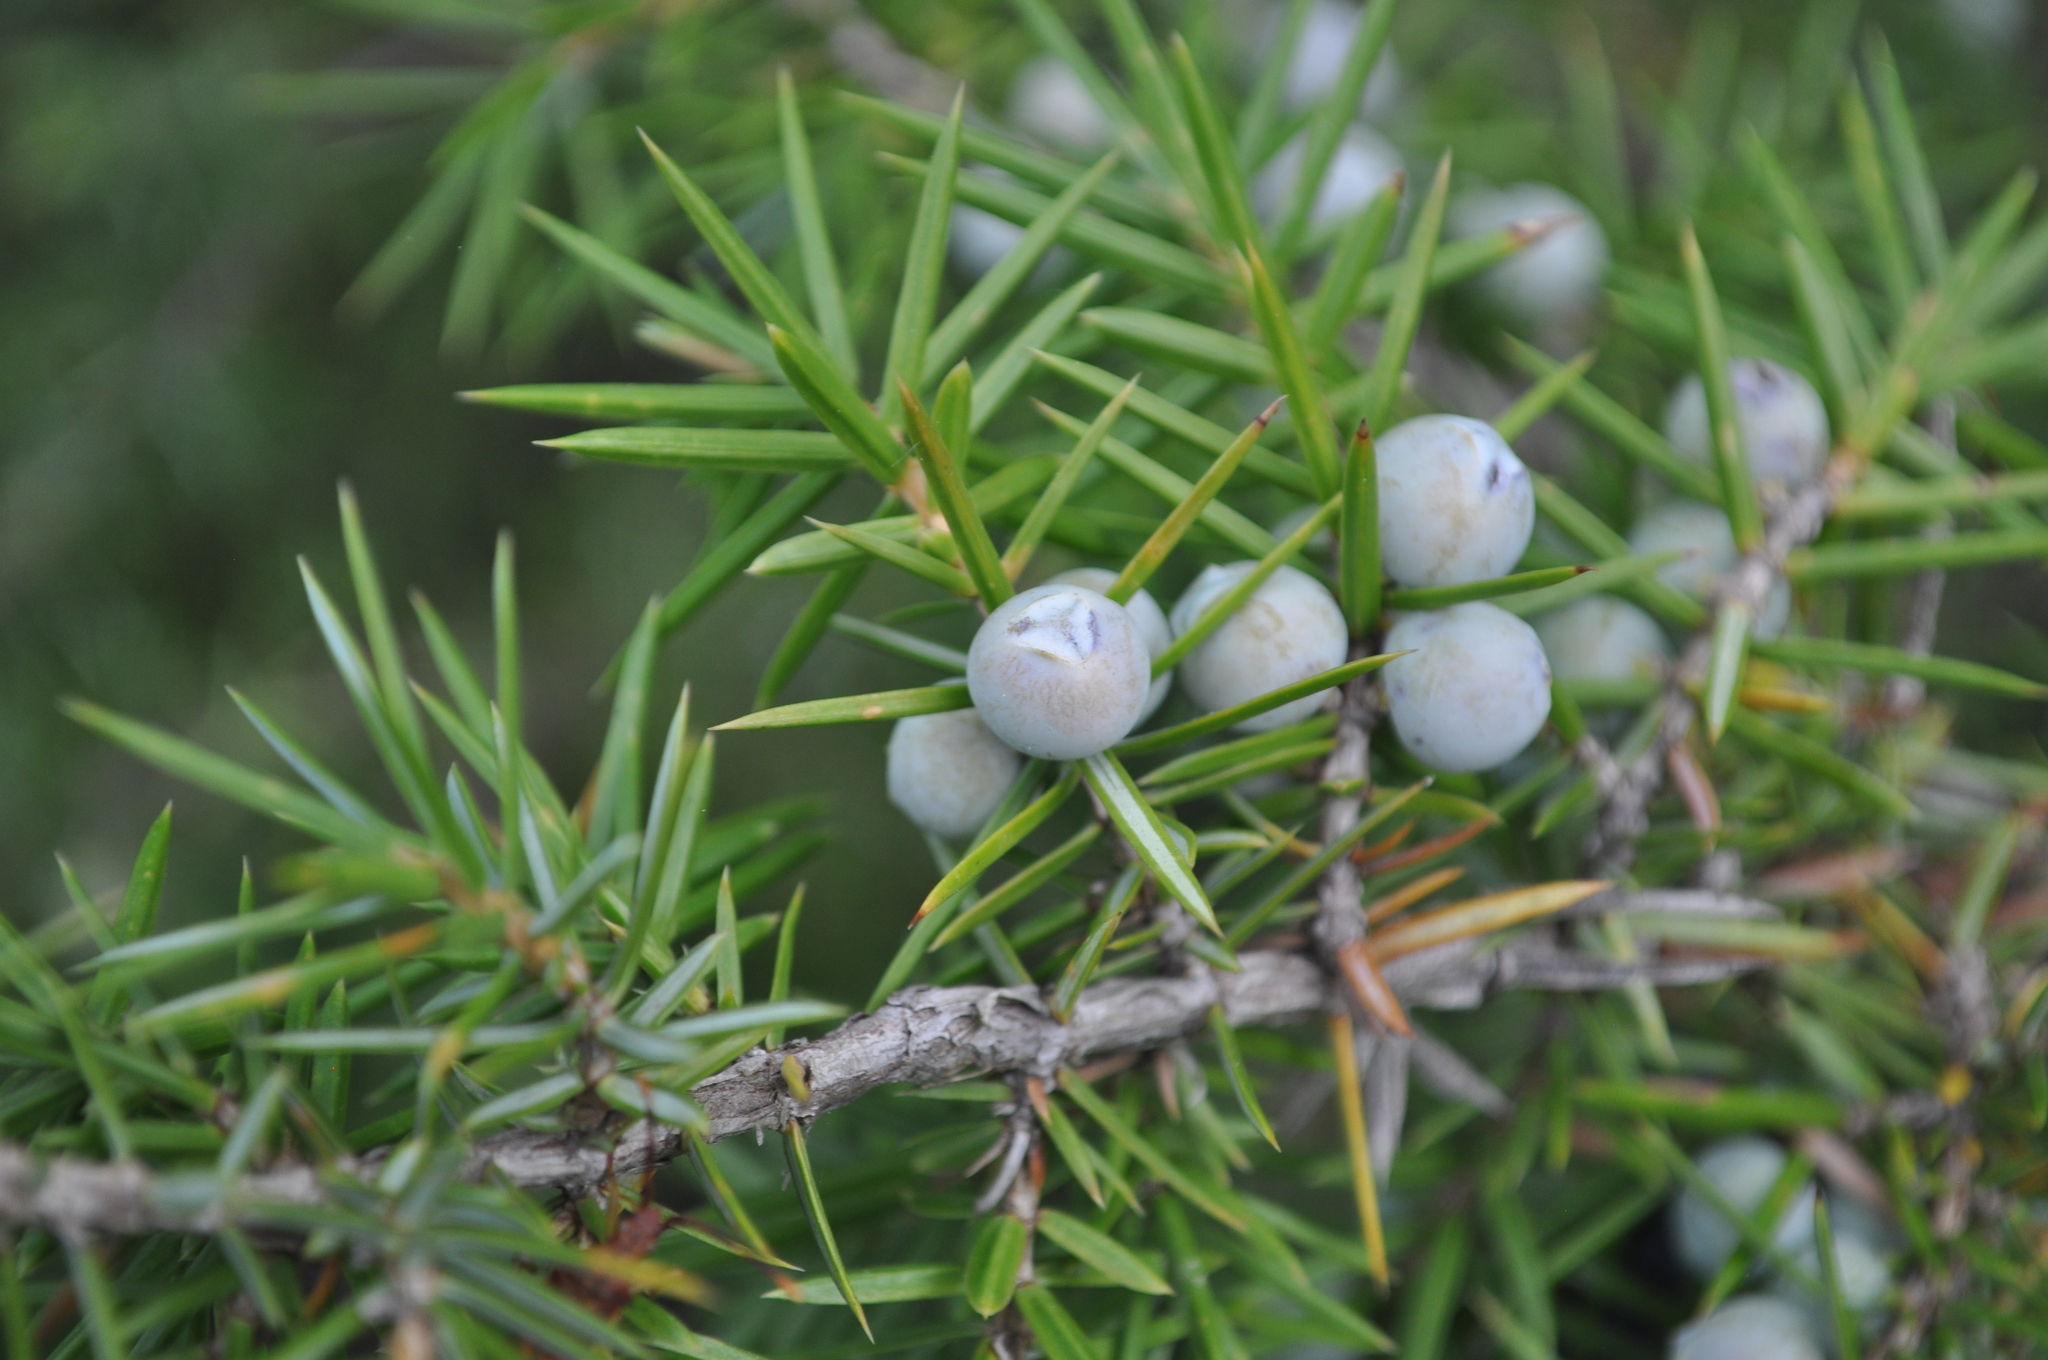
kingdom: Plantae
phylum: Tracheophyta
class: Pinopsida
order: Pinales
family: Cupressaceae
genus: Juniperus
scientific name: Juniperus communis
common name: Common juniper
